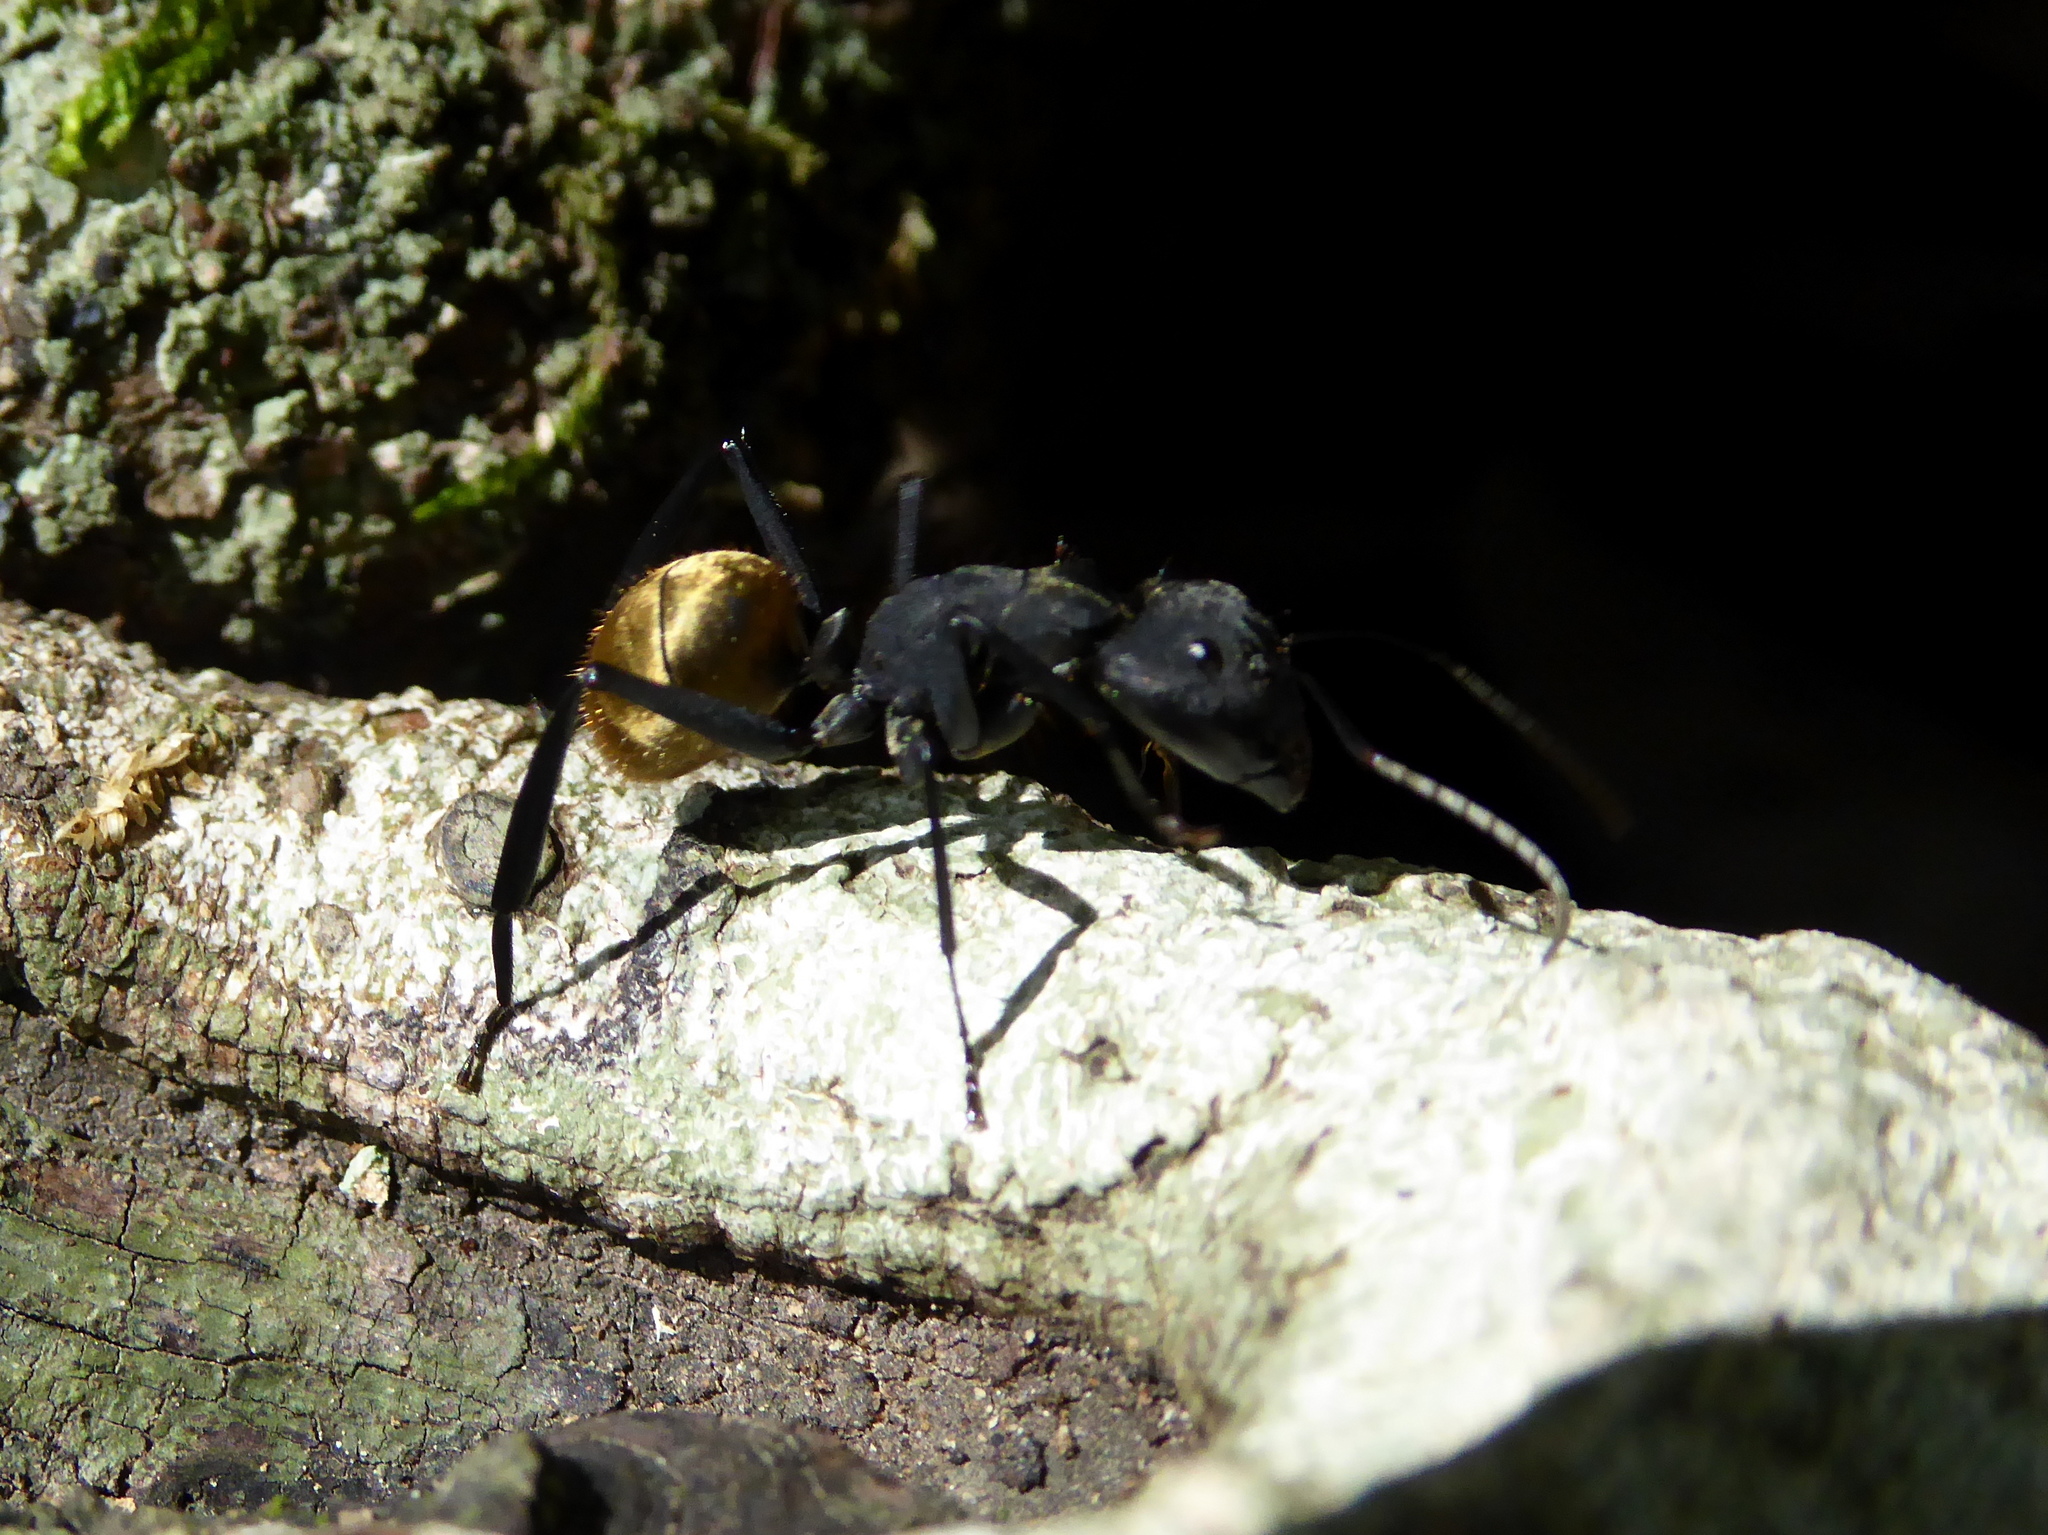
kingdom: Animalia
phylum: Arthropoda
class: Insecta
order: Hymenoptera
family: Formicidae
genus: Camponotus
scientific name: Camponotus sericeiventris
